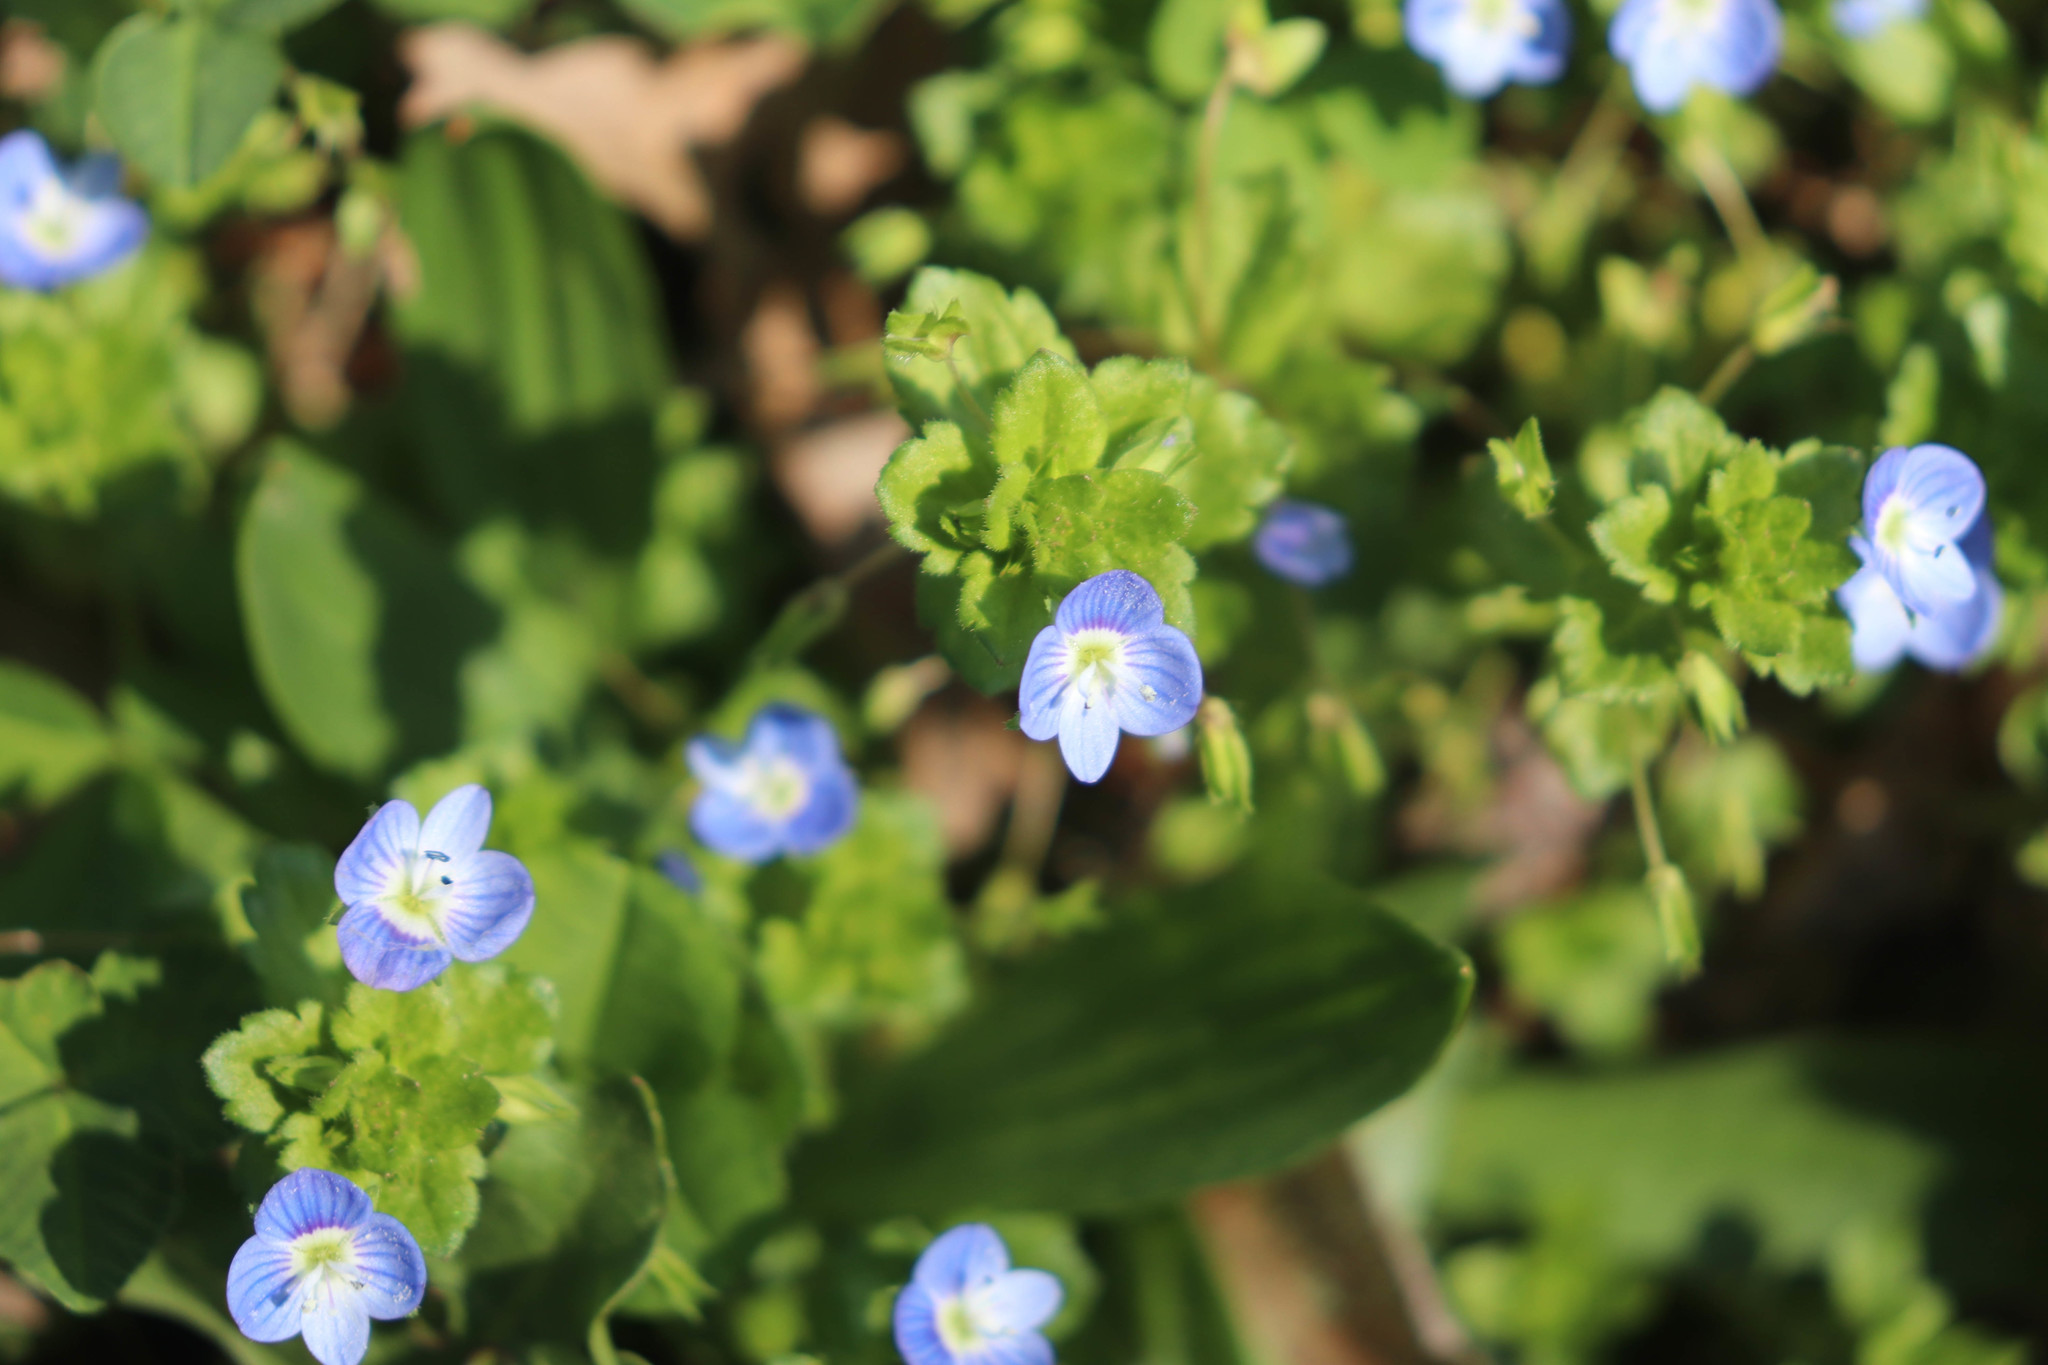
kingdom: Plantae
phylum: Tracheophyta
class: Magnoliopsida
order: Lamiales
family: Plantaginaceae
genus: Veronica
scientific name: Veronica persica
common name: Common field-speedwell
